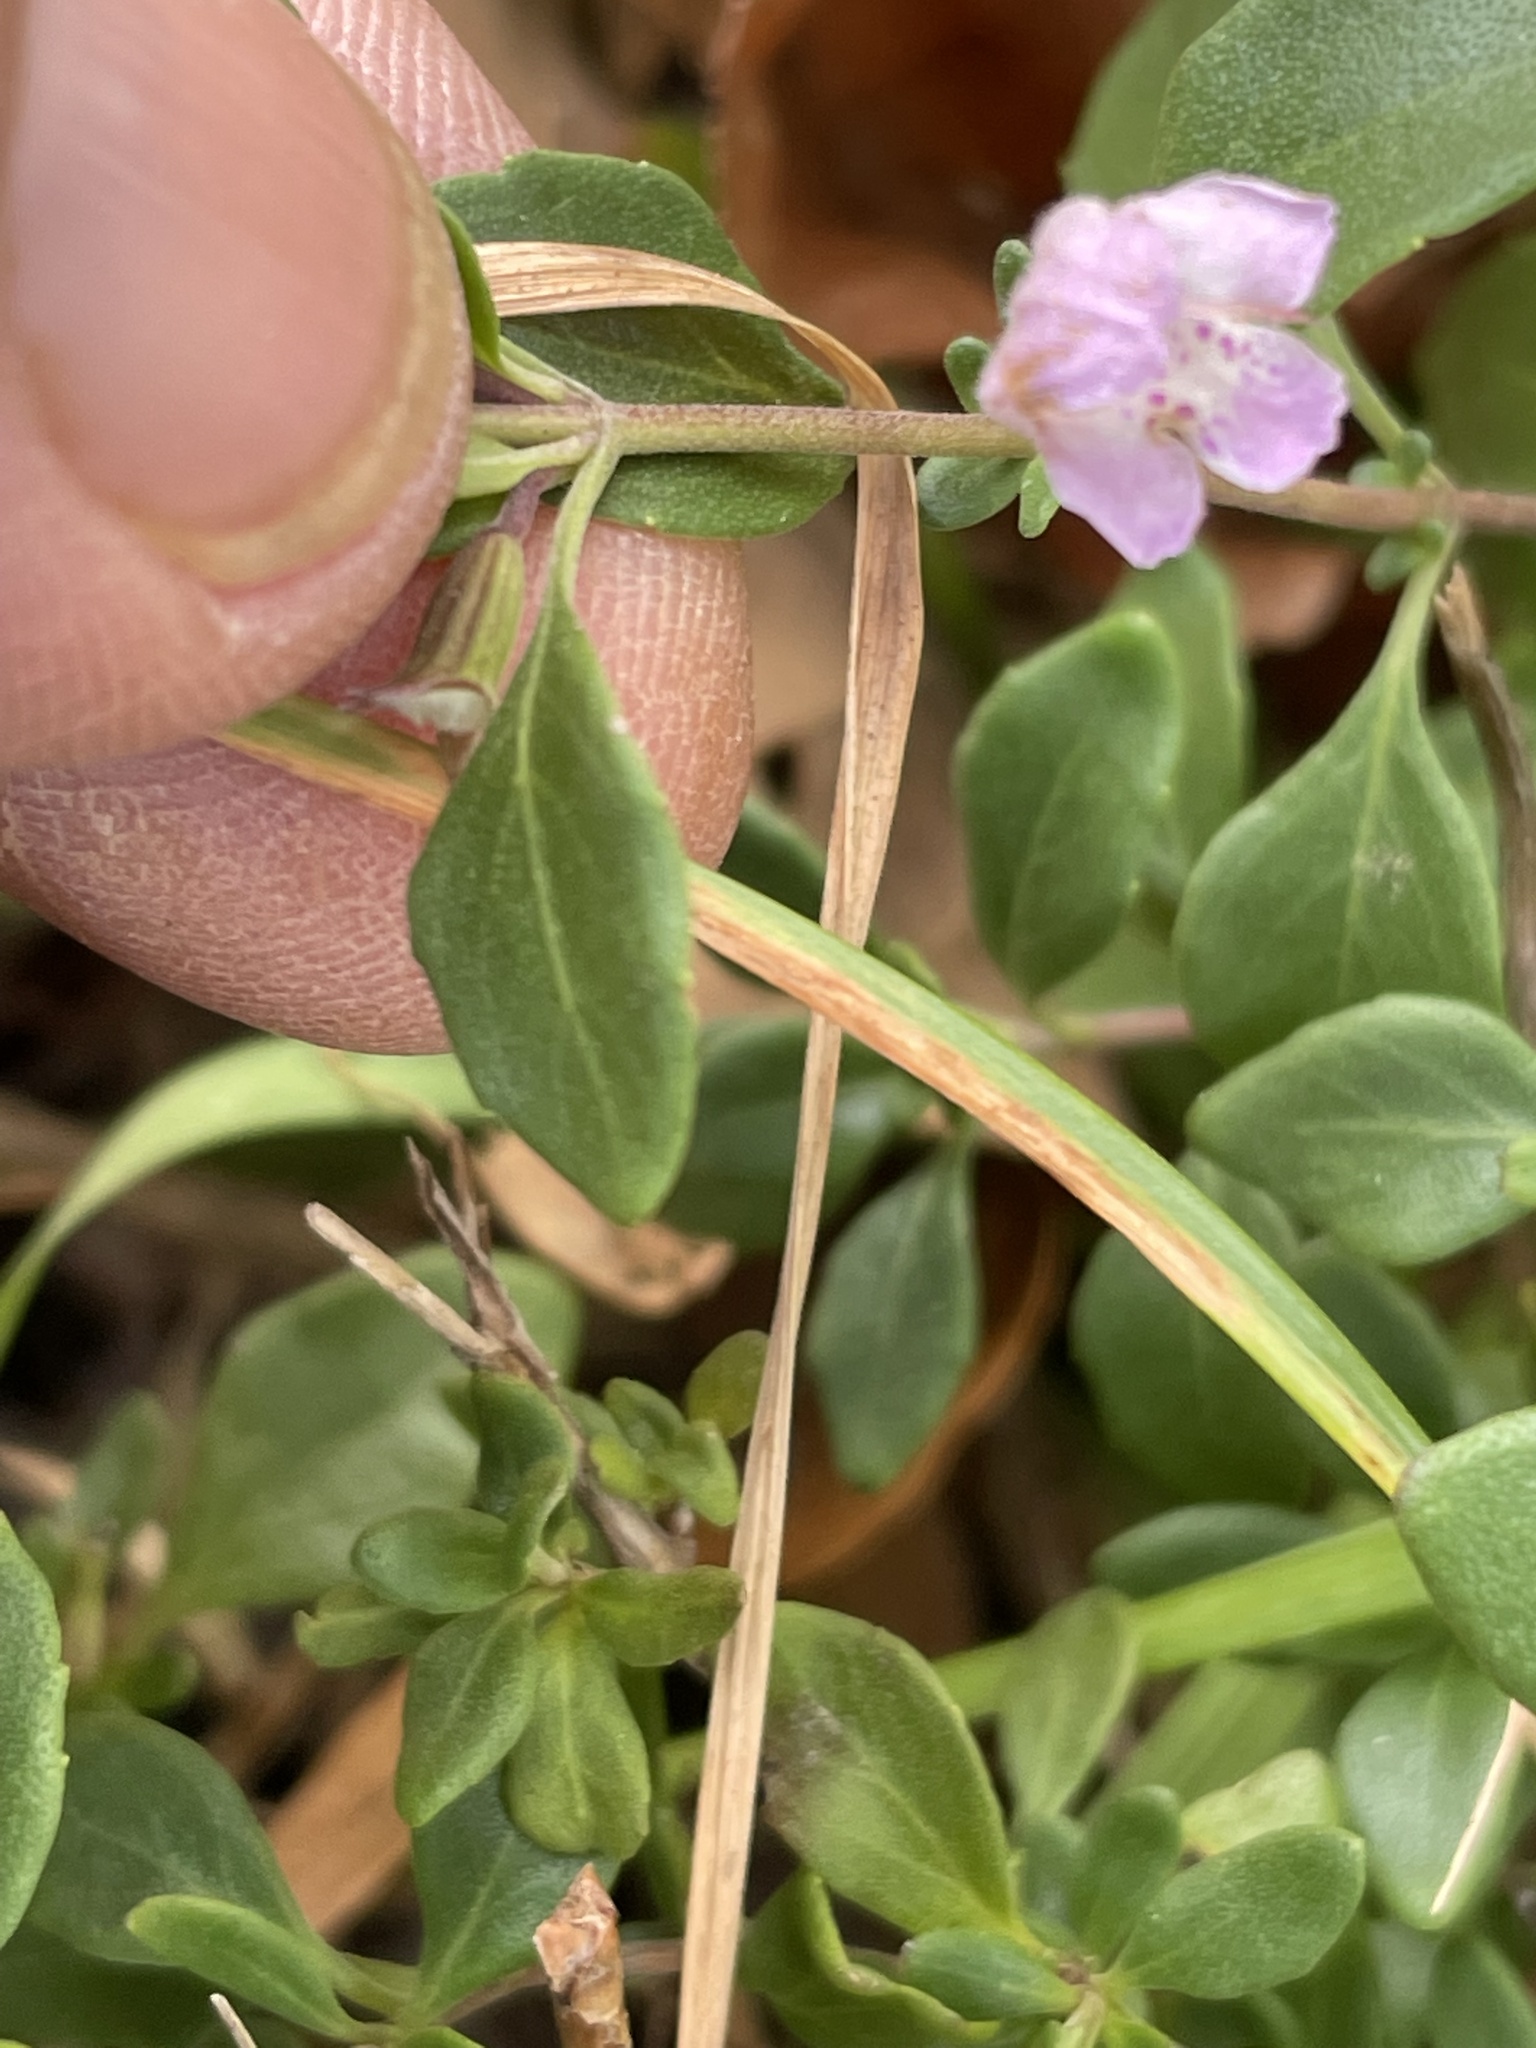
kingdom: Plantae
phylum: Tracheophyta
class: Magnoliopsida
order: Lamiales
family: Lamiaceae
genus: Clinopodium
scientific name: Clinopodium carolinianum
